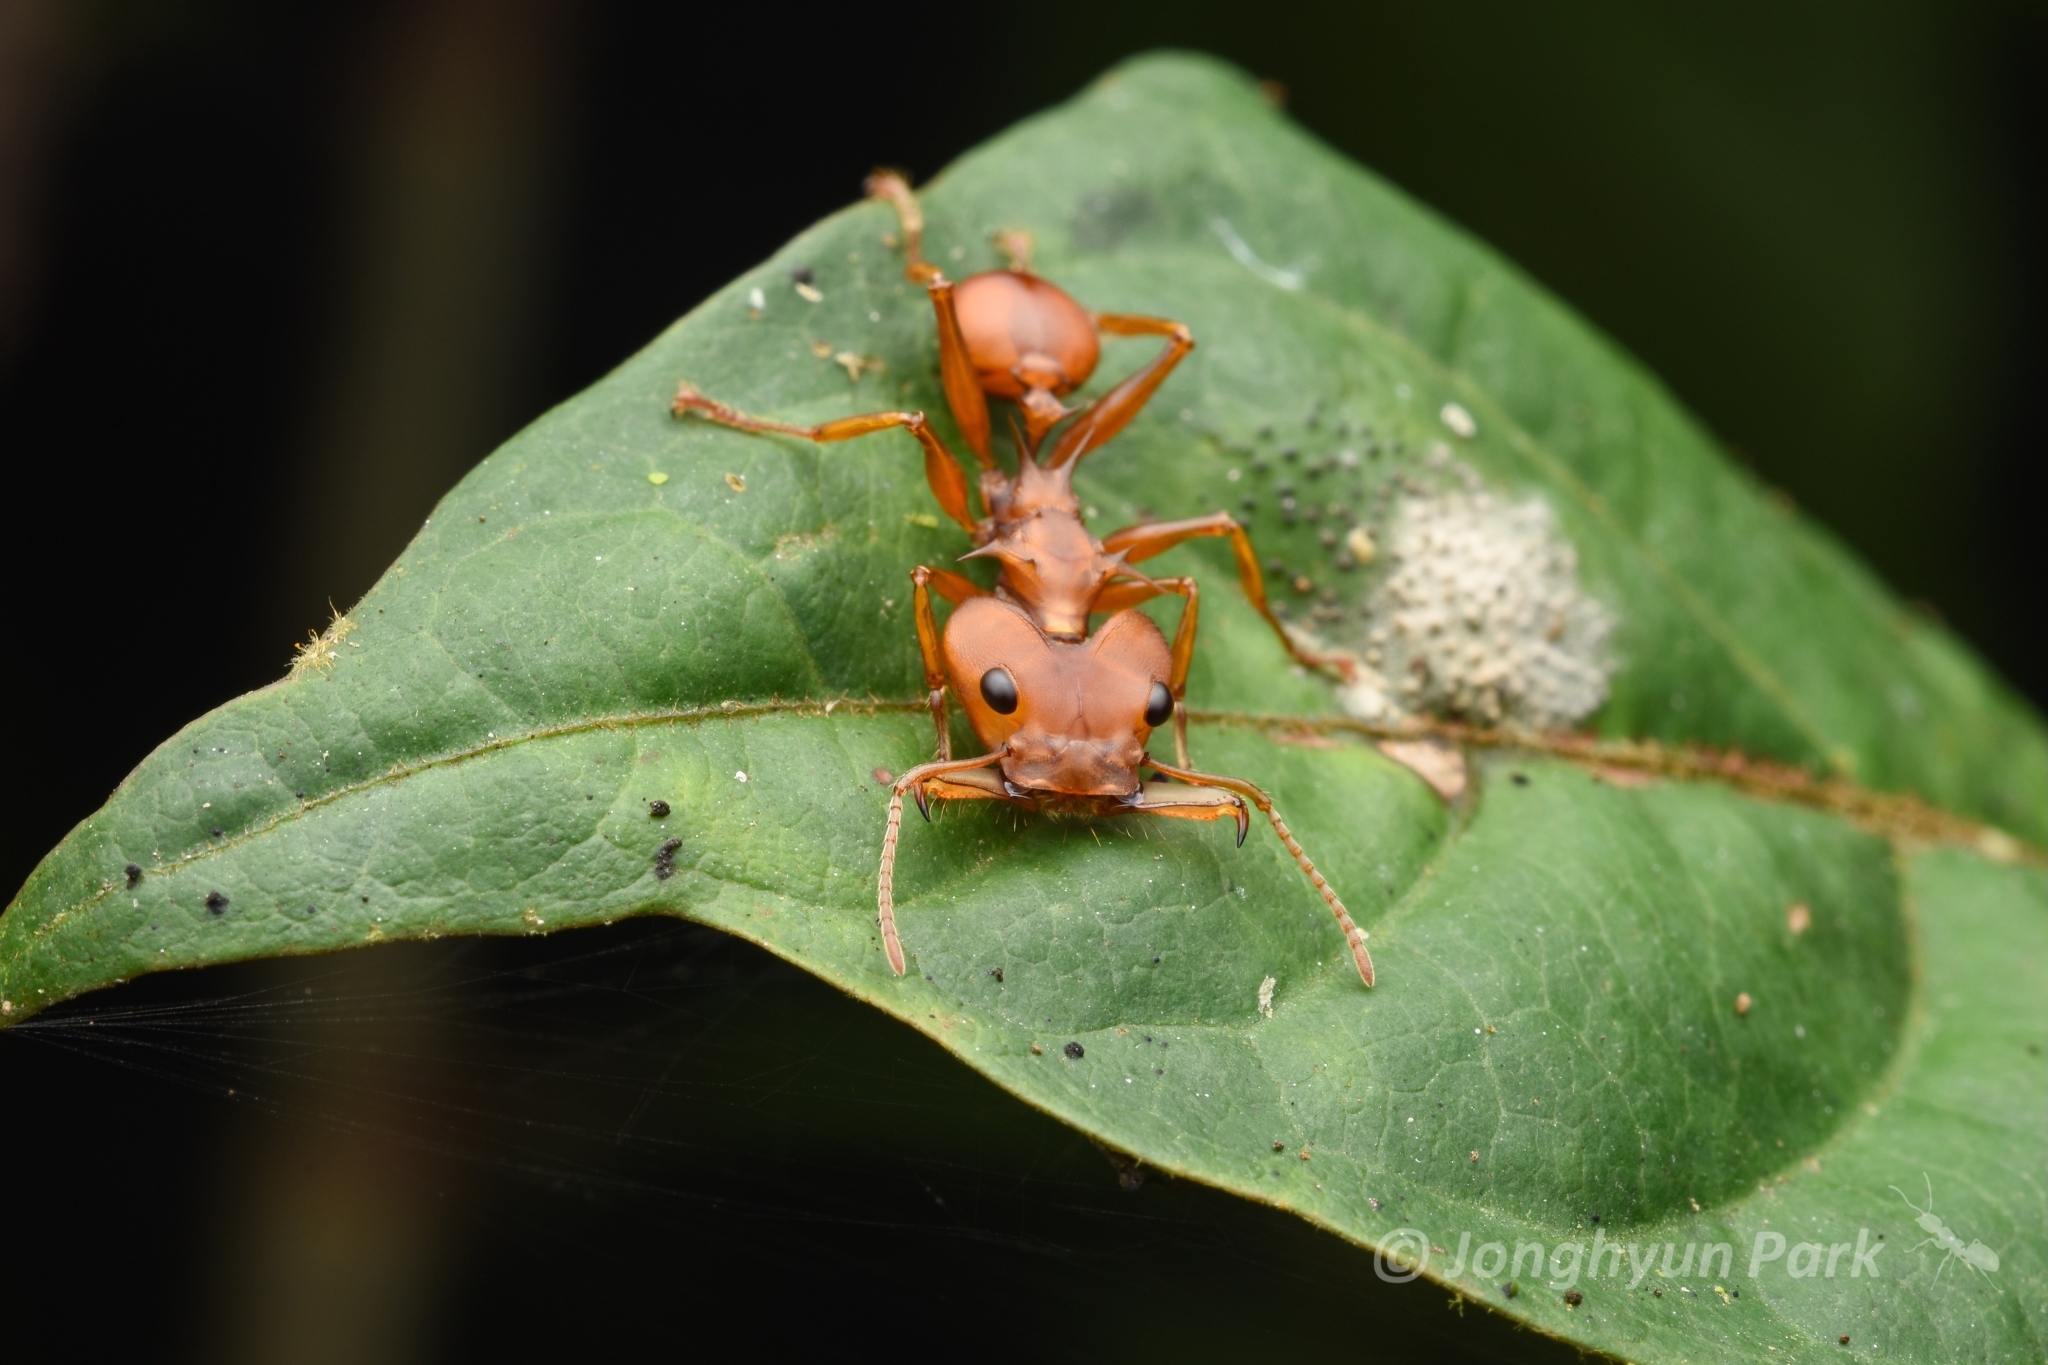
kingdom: Animalia
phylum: Arthropoda
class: Insecta
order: Hymenoptera
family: Formicidae
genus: Daceton
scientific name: Daceton armigerum
